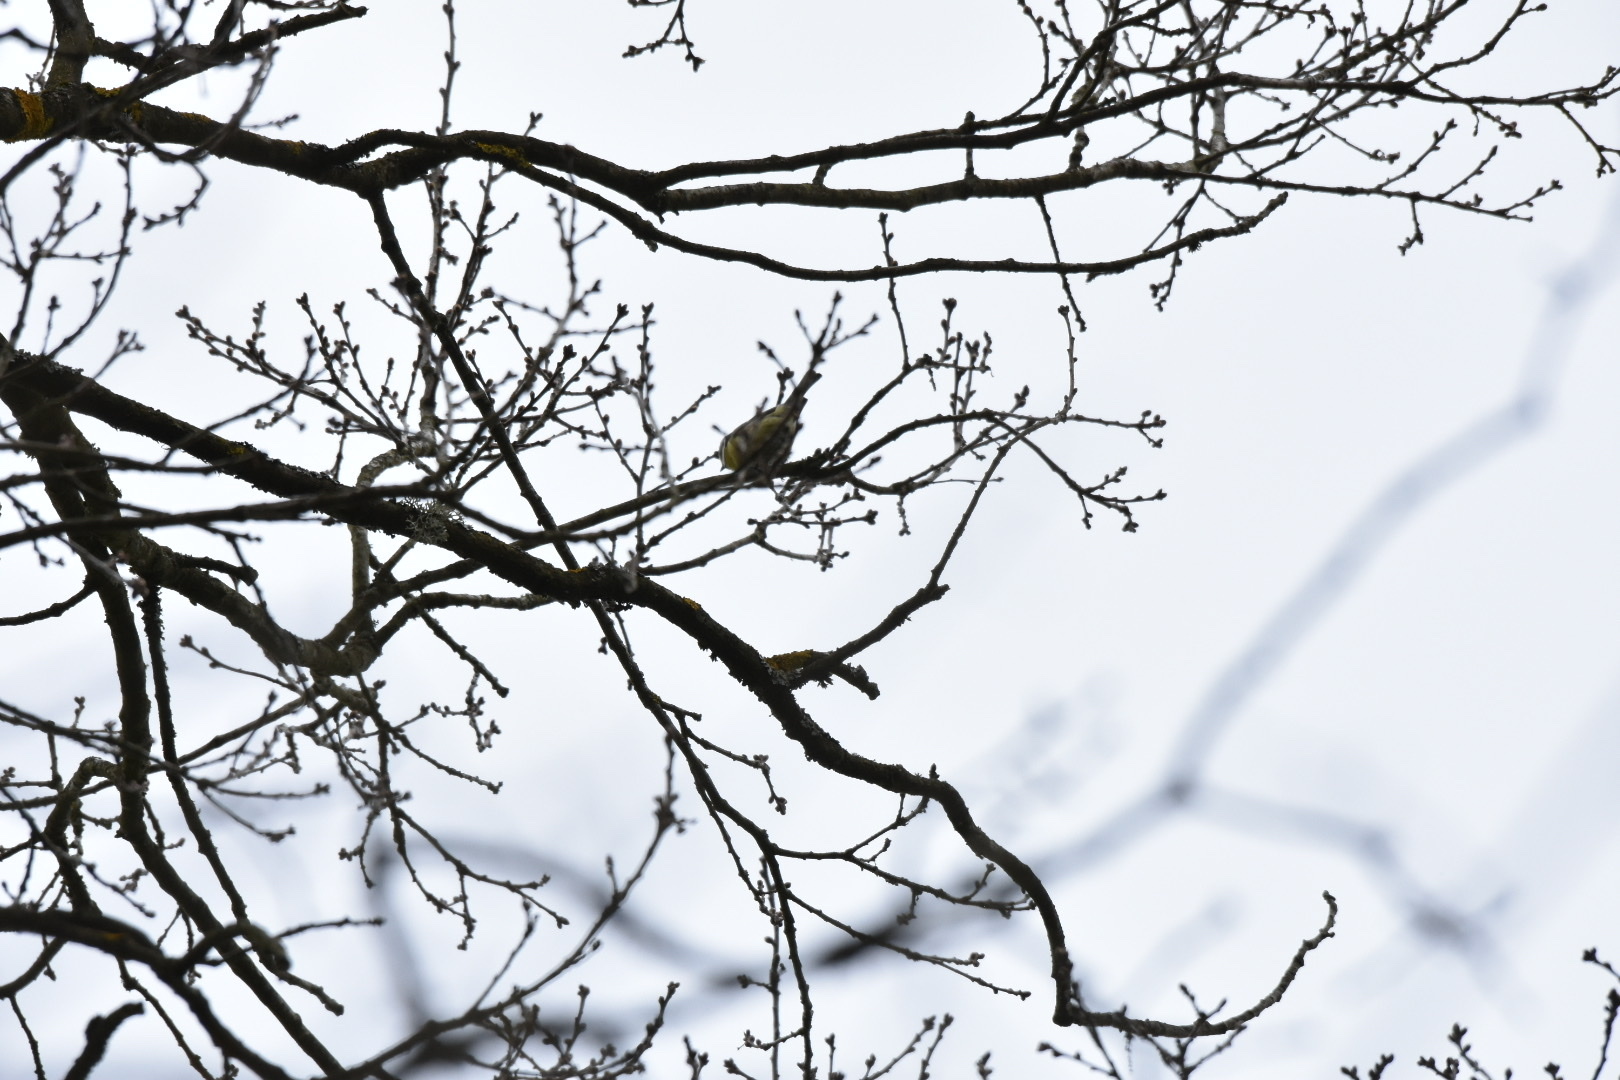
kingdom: Animalia
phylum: Chordata
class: Aves
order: Passeriformes
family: Paridae
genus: Cyanistes
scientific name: Cyanistes caeruleus
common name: Eurasian blue tit
